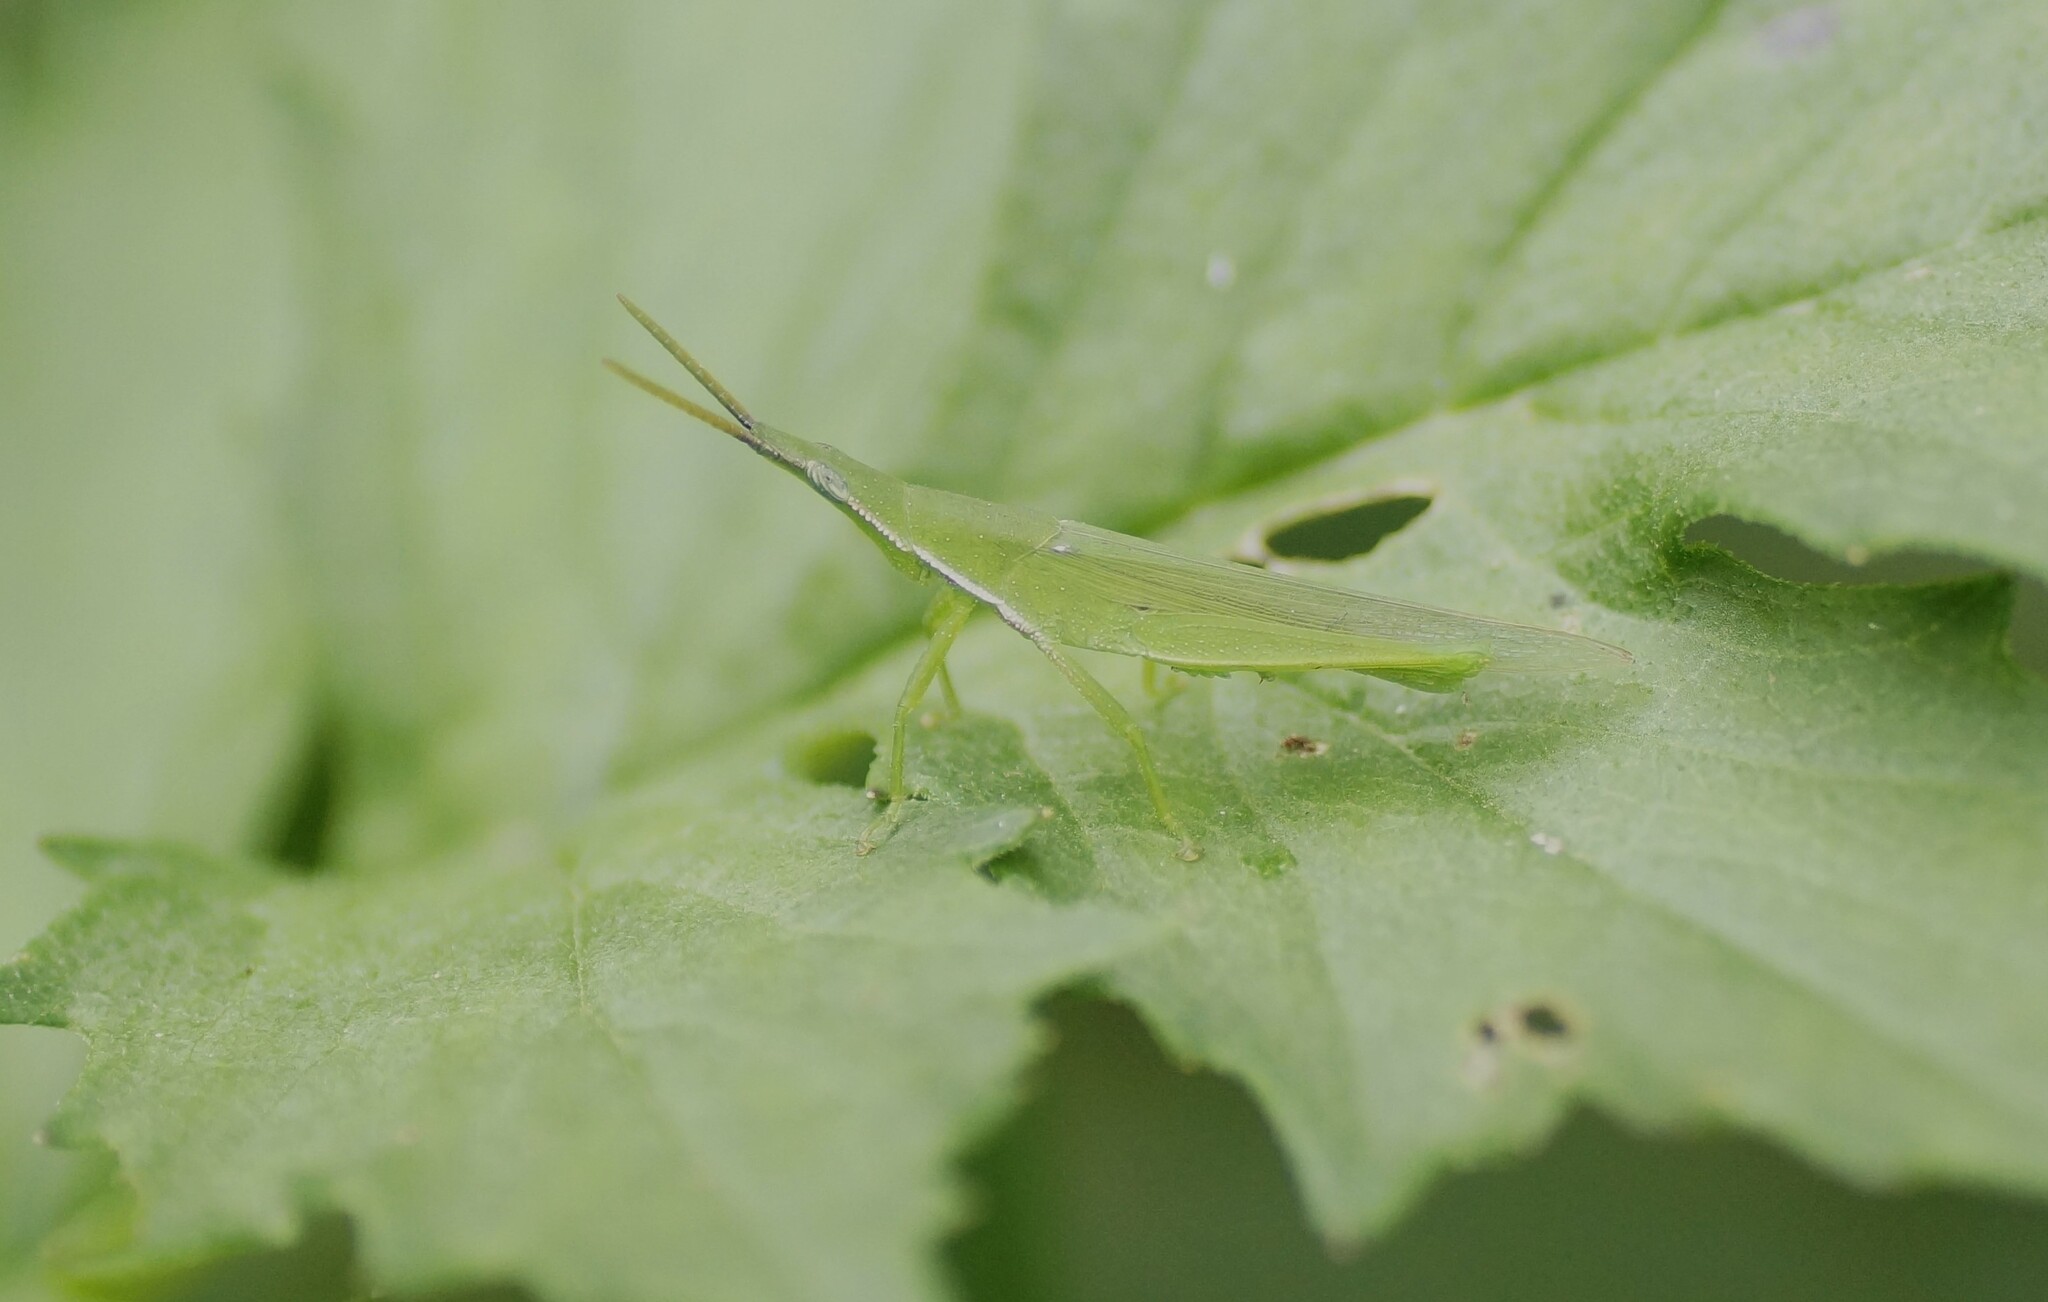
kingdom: Animalia
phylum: Arthropoda
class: Insecta
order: Orthoptera
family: Pyrgomorphidae
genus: Atractomorpha
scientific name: Atractomorpha similis
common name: Northern grass pyrgomorph
